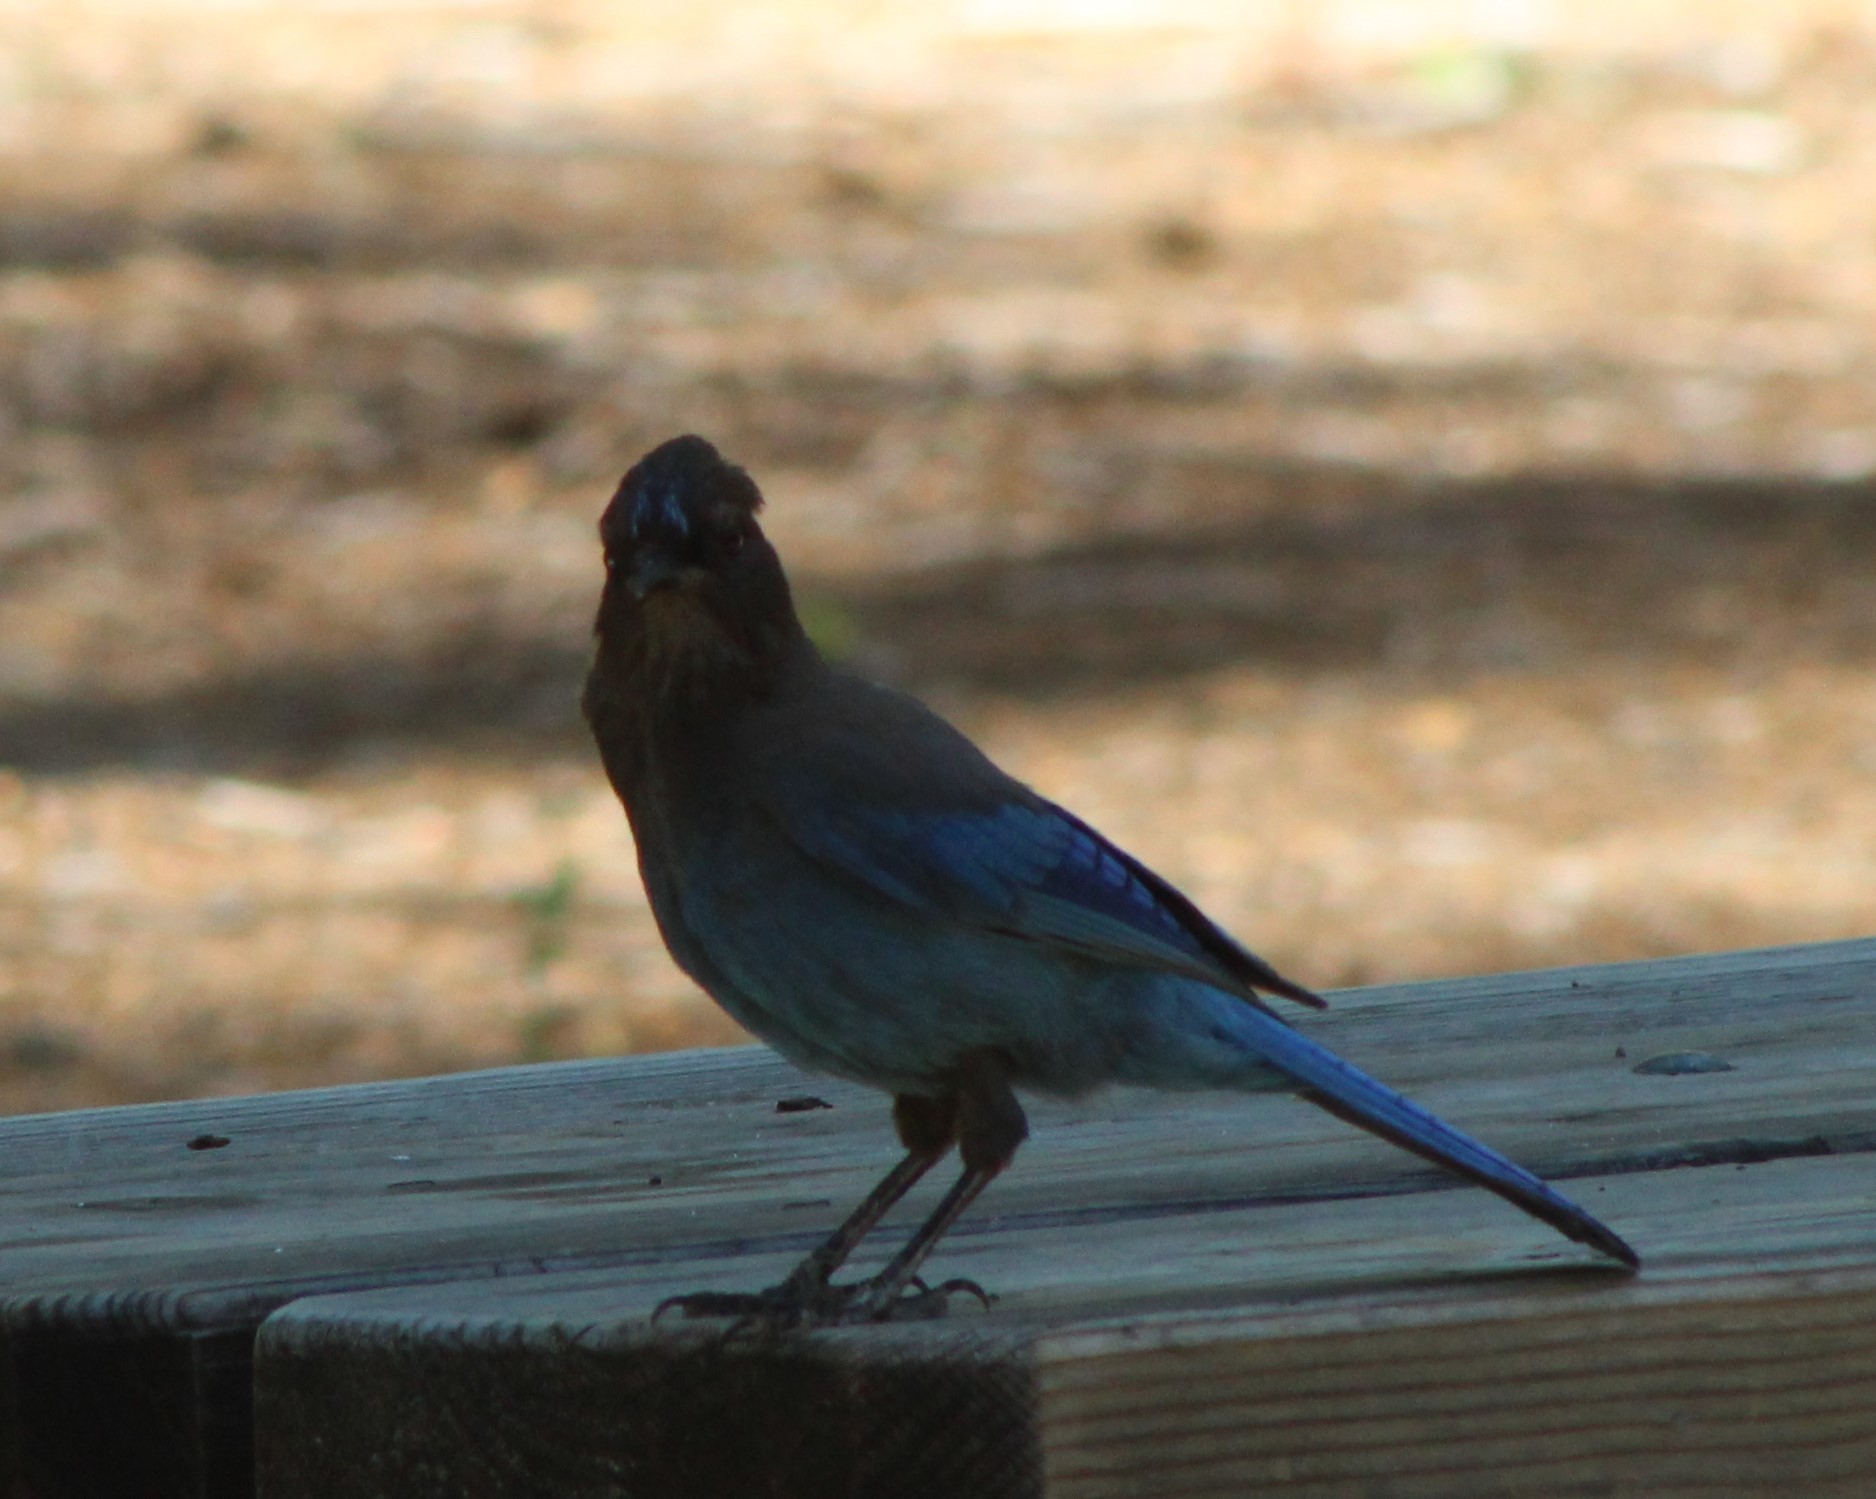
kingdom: Animalia
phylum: Chordata
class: Aves
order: Passeriformes
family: Corvidae
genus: Cyanocitta
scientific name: Cyanocitta stelleri
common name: Steller's jay
